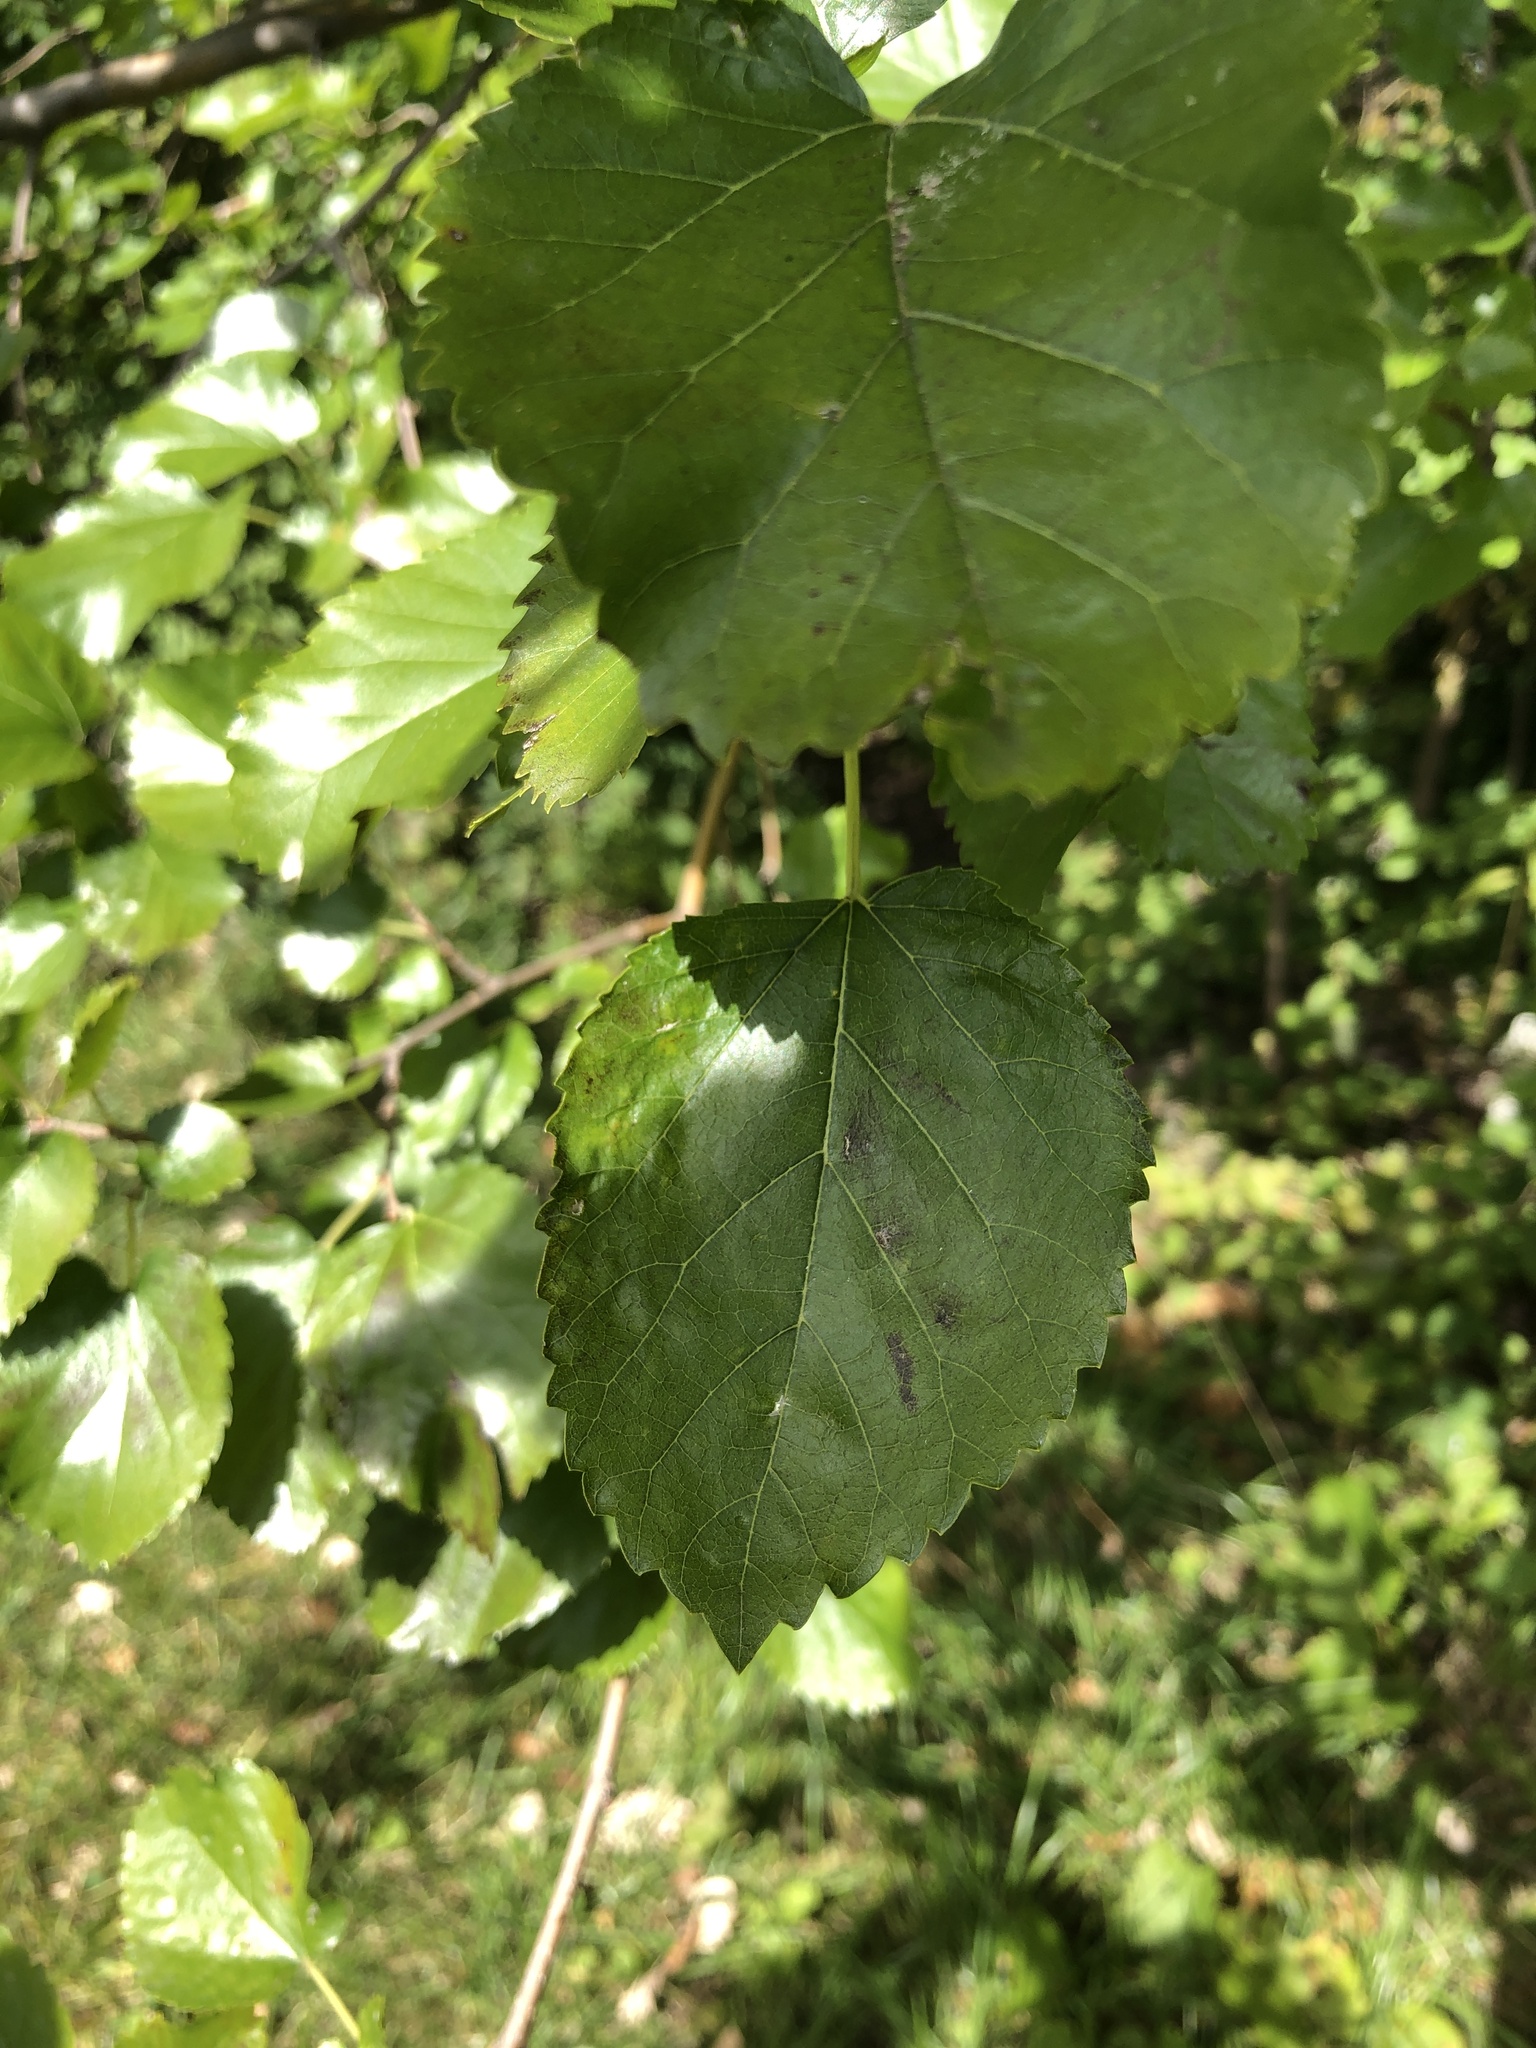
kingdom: Plantae
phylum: Tracheophyta
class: Magnoliopsida
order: Rosales
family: Moraceae
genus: Morus
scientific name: Morus alba
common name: White mulberry
